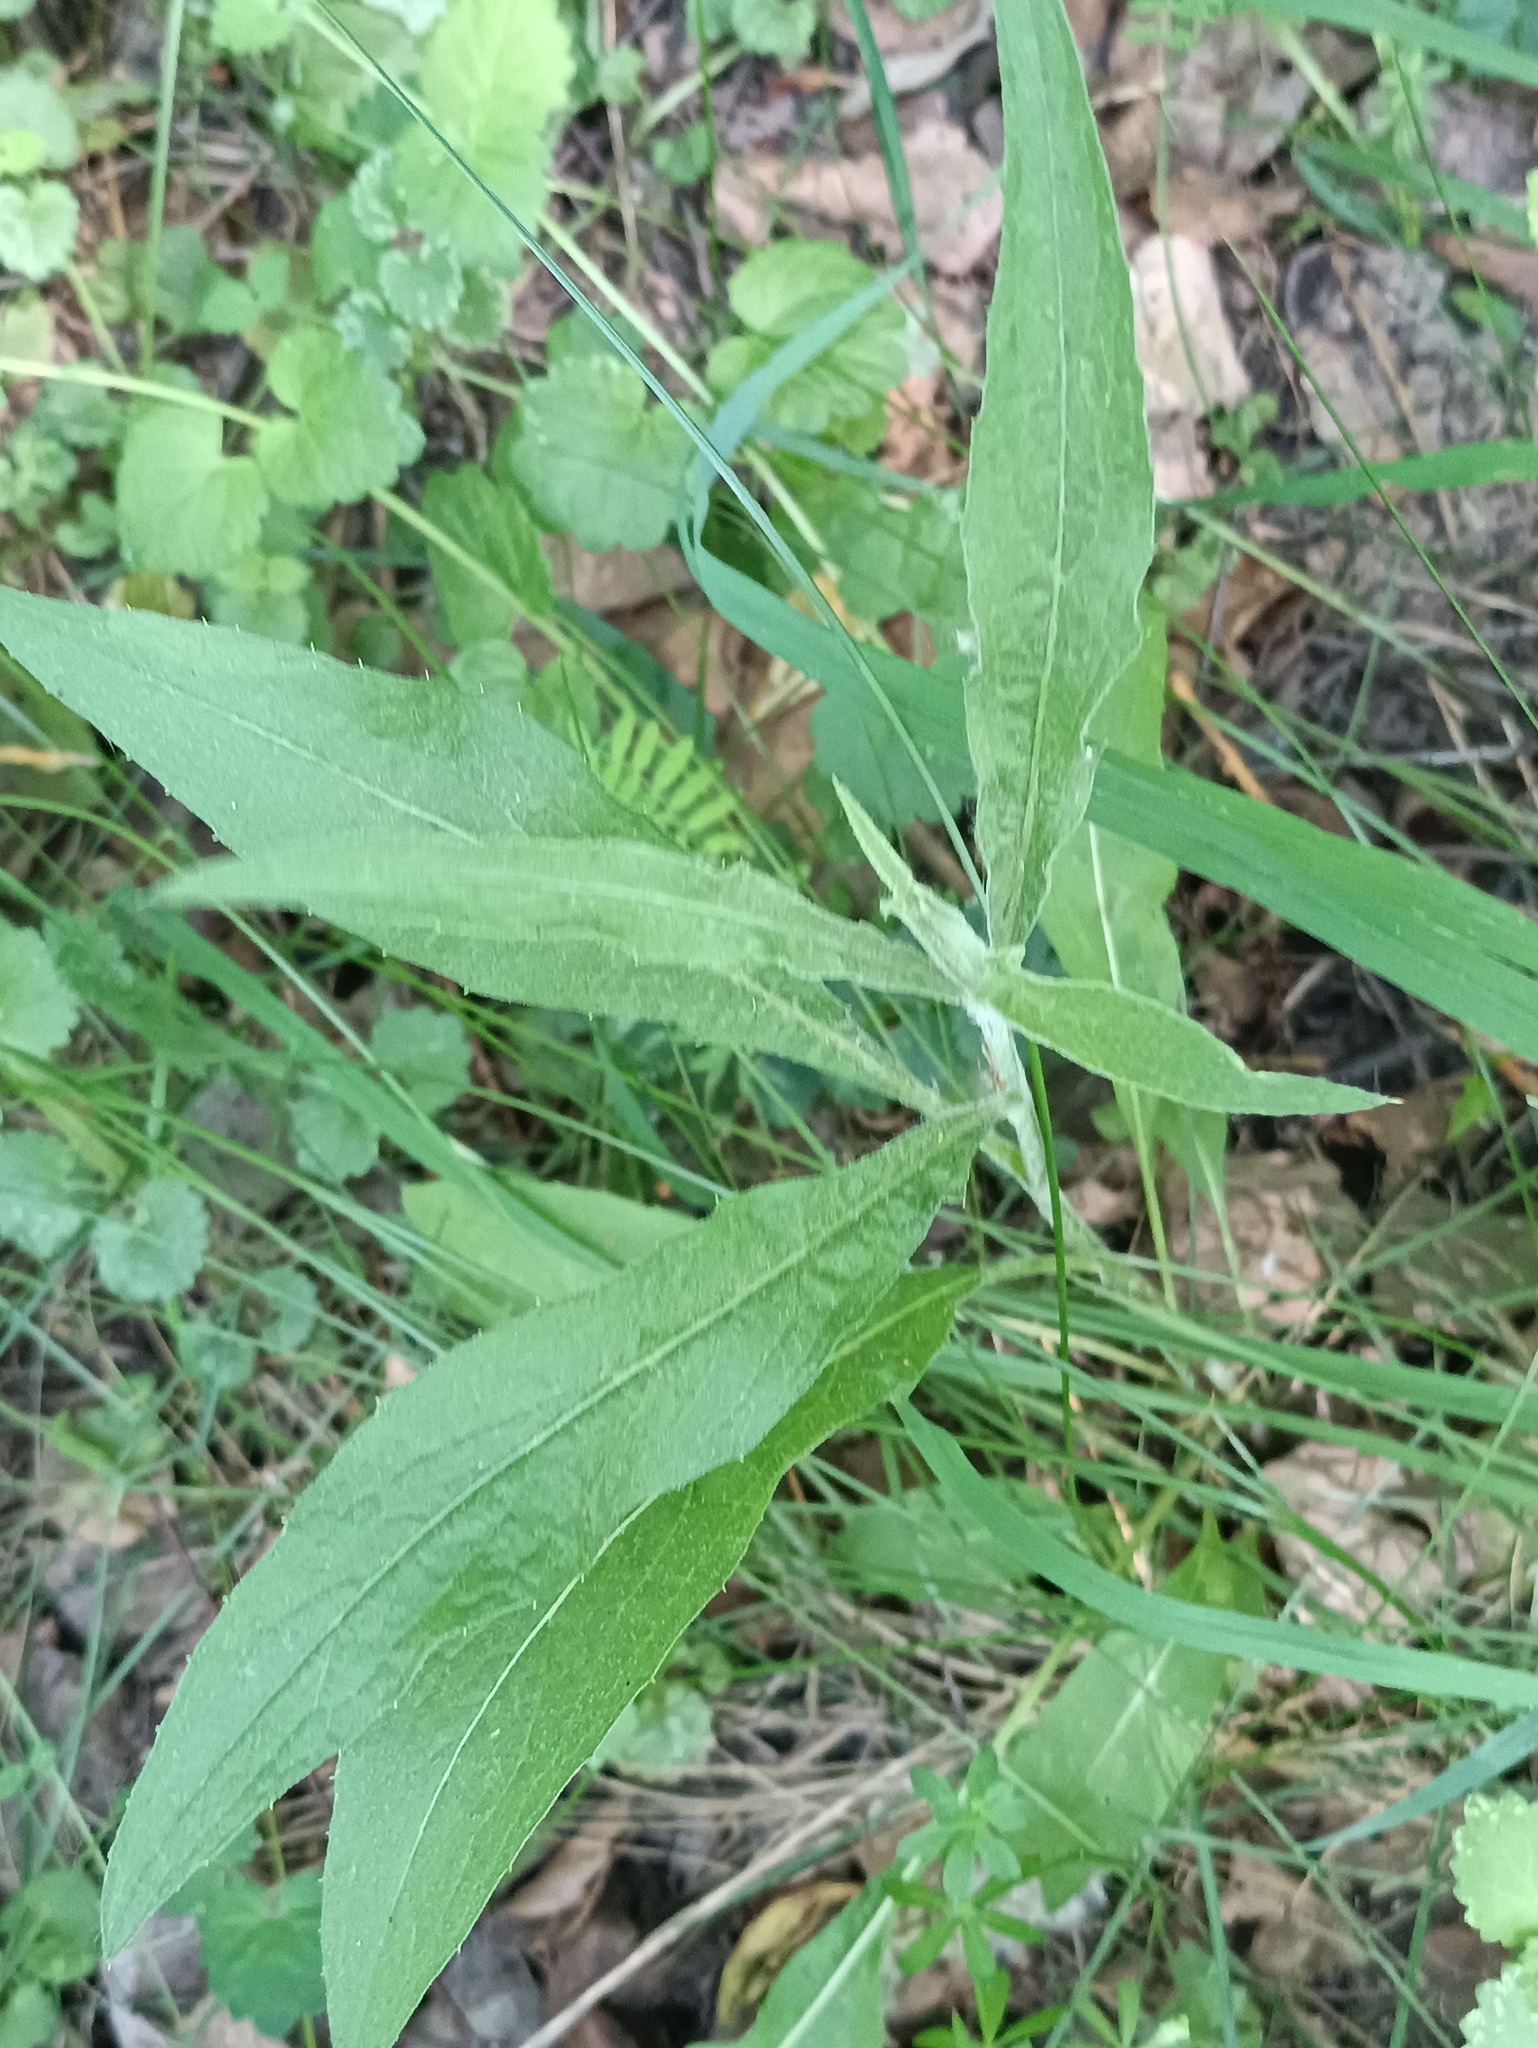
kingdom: Plantae
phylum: Tracheophyta
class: Magnoliopsida
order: Asterales
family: Asteraceae
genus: Centaurea
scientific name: Centaurea jacea
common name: Brown knapweed
